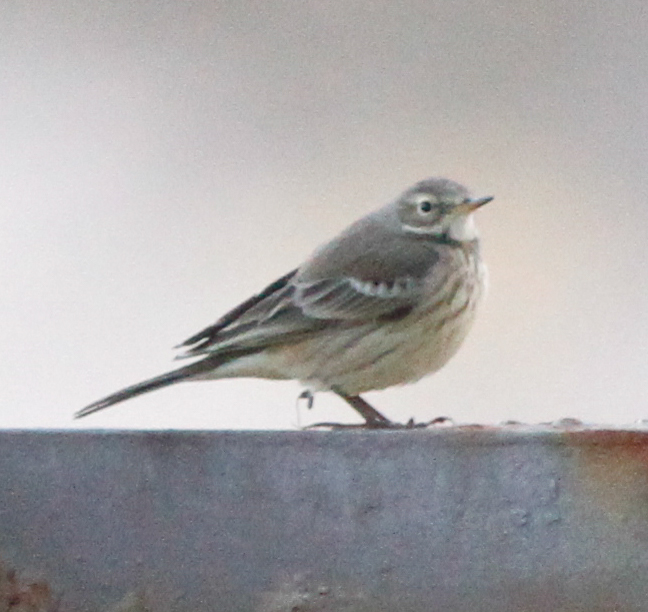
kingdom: Animalia
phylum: Chordata
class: Aves
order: Passeriformes
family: Motacillidae
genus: Anthus
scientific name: Anthus rubescens
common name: Buff-bellied pipit
